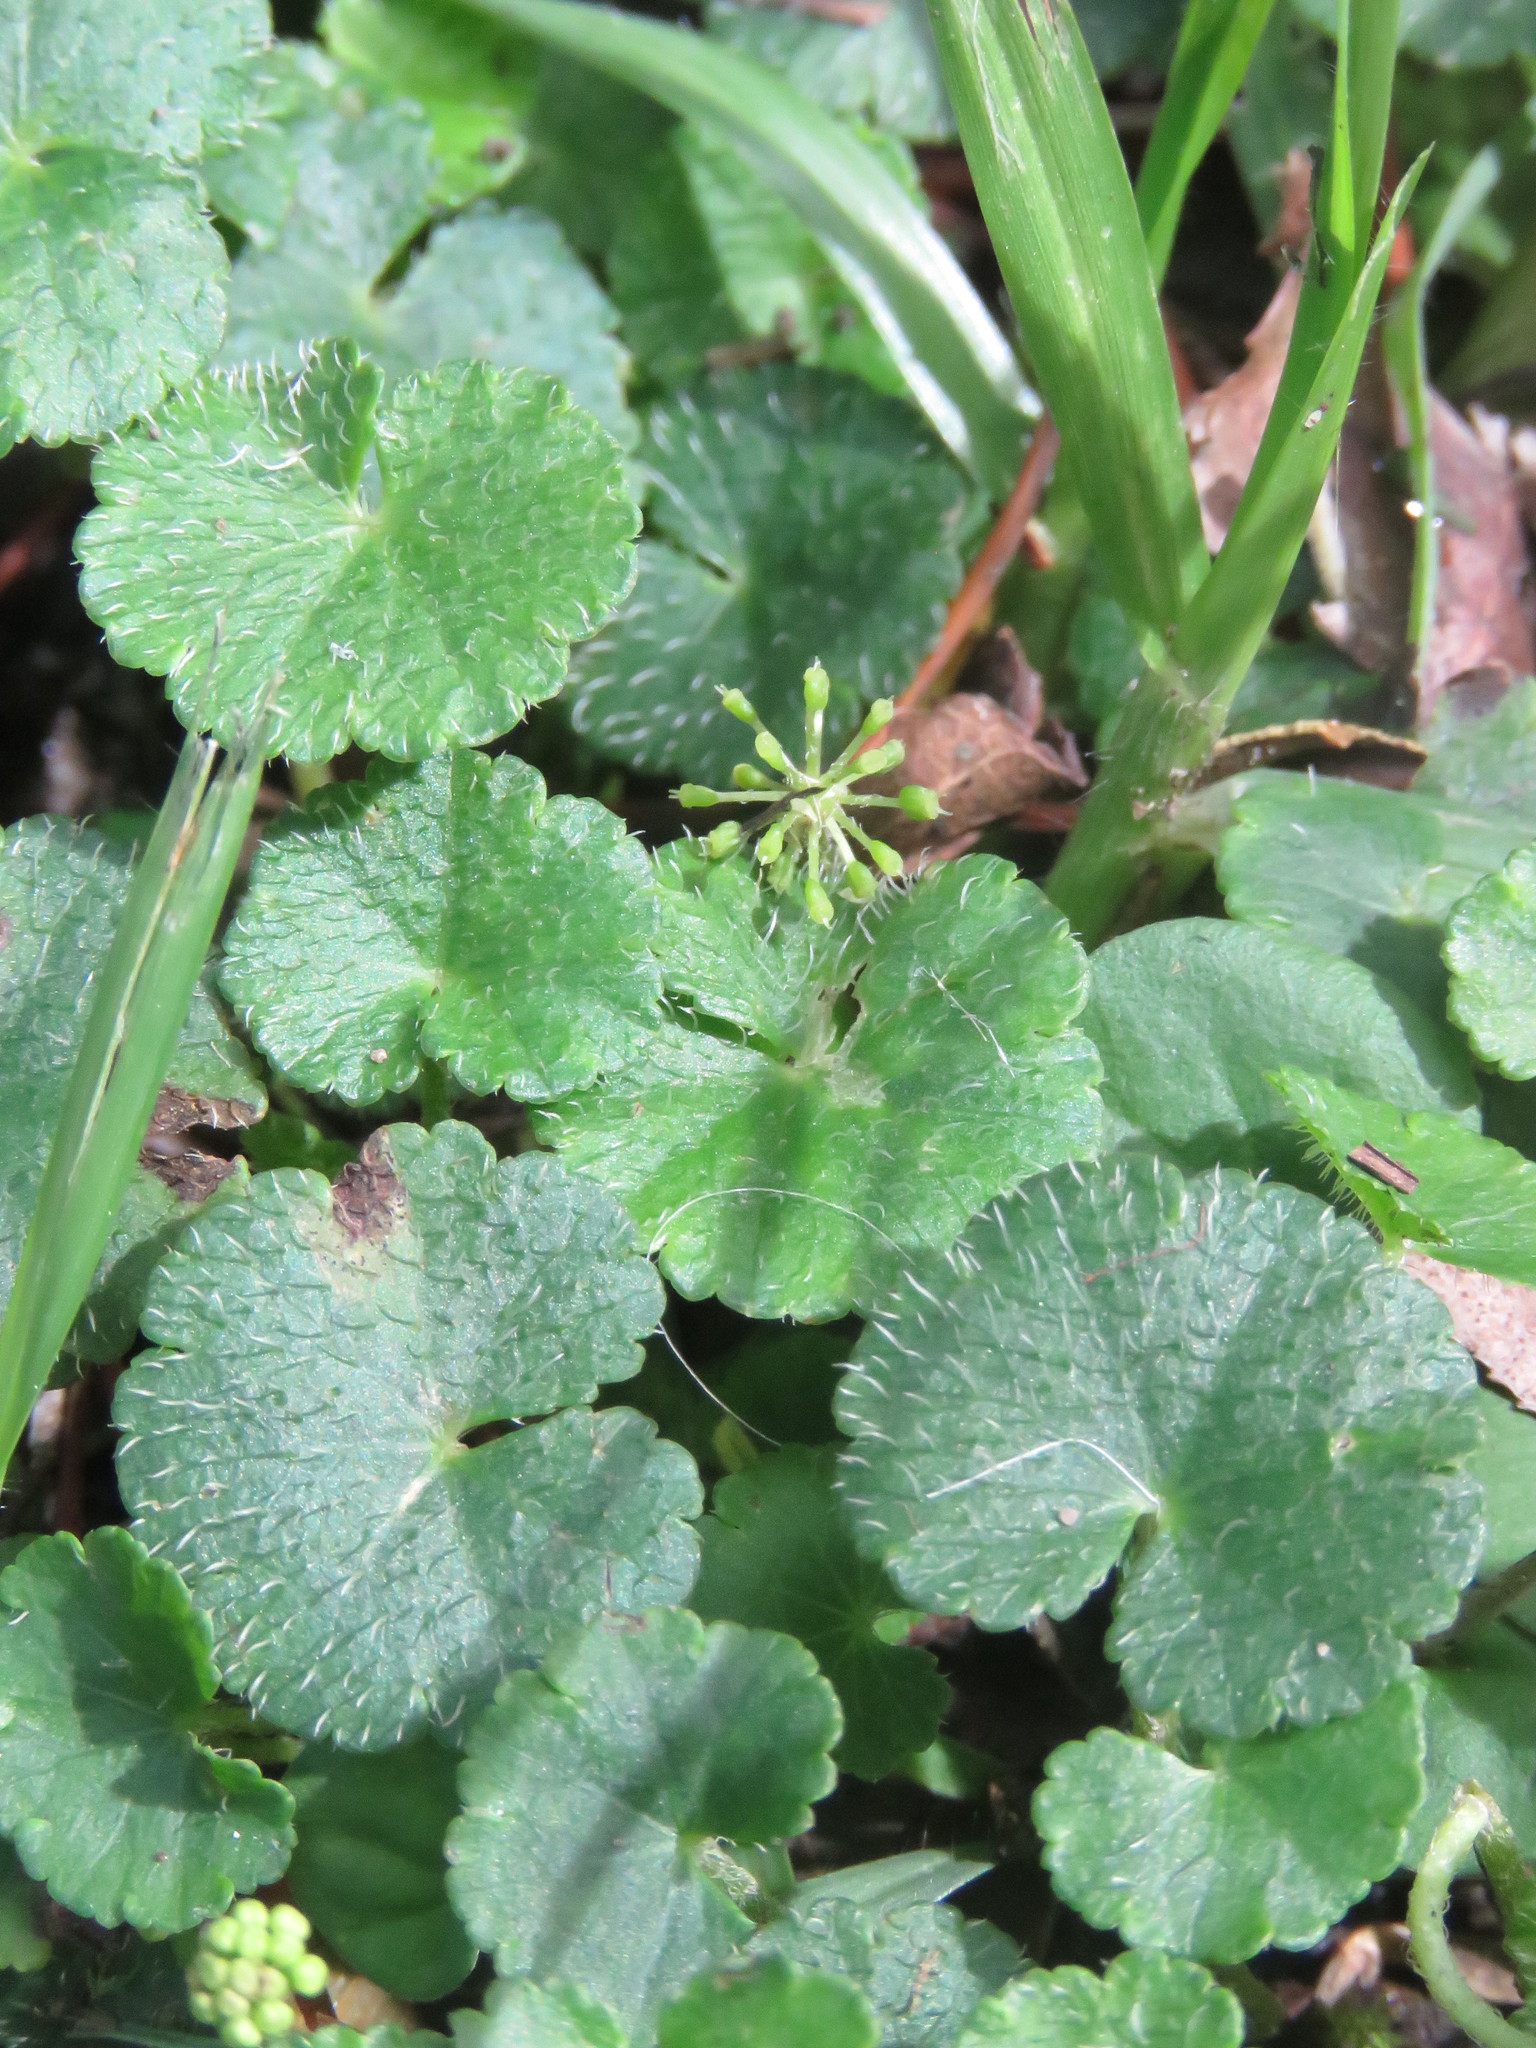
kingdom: Plantae
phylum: Tracheophyta
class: Magnoliopsida
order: Apiales
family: Araliaceae
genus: Hydrocotyle
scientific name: Hydrocotyle bonplandii
